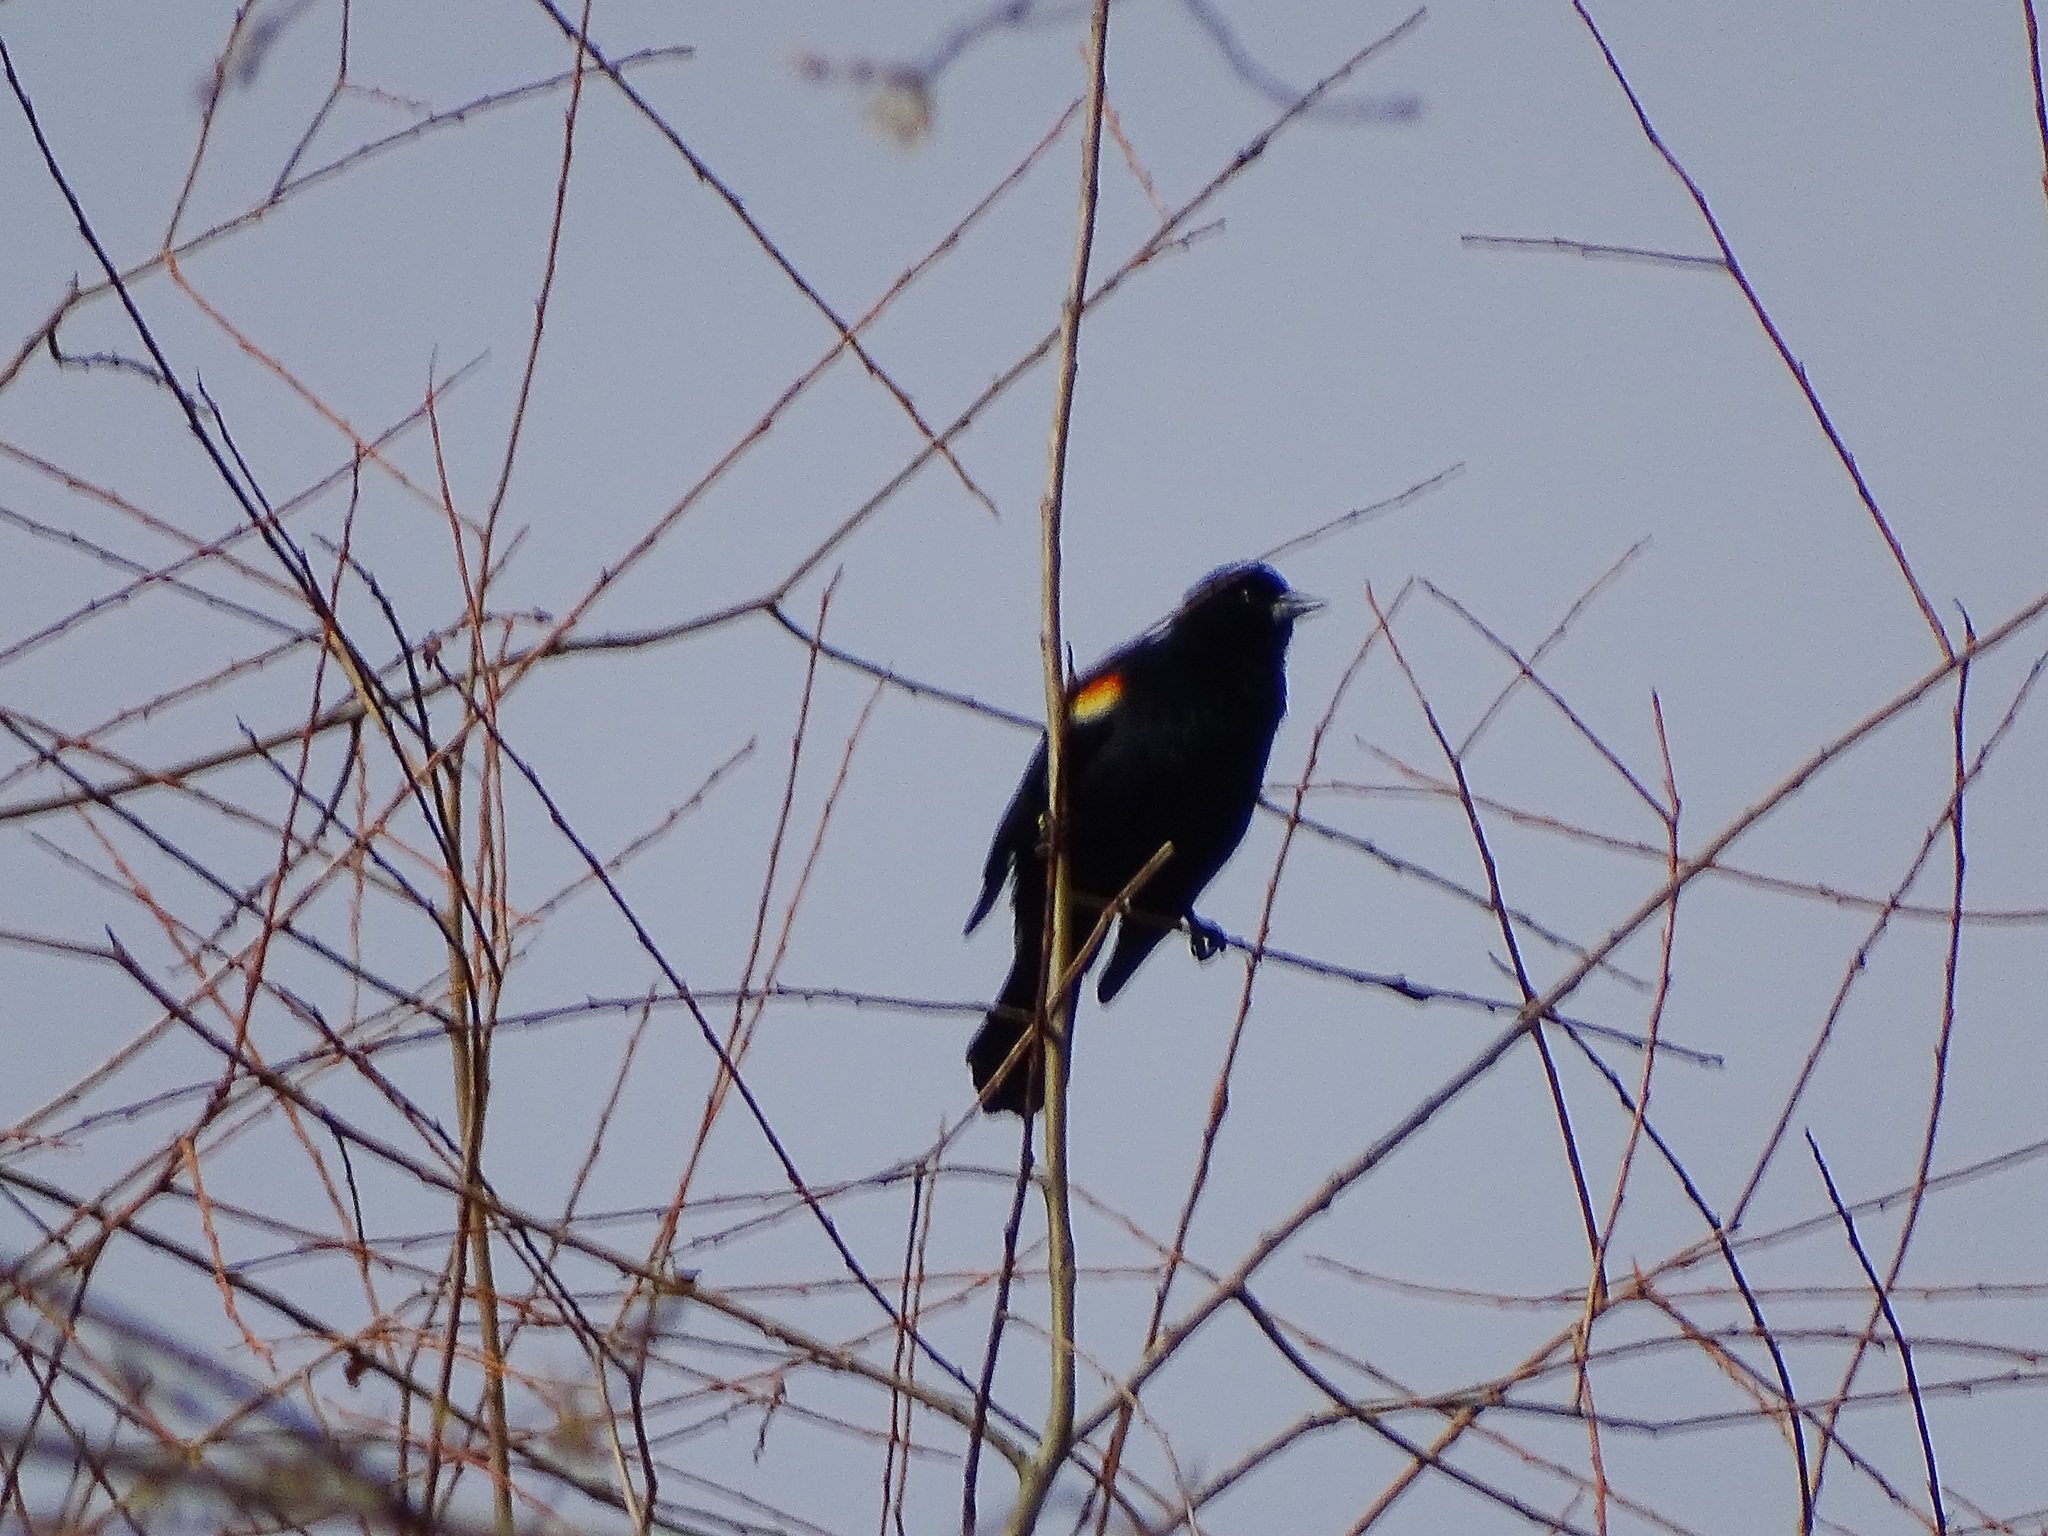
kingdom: Animalia
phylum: Chordata
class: Aves
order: Passeriformes
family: Icteridae
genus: Agelaius
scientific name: Agelaius phoeniceus
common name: Red-winged blackbird
